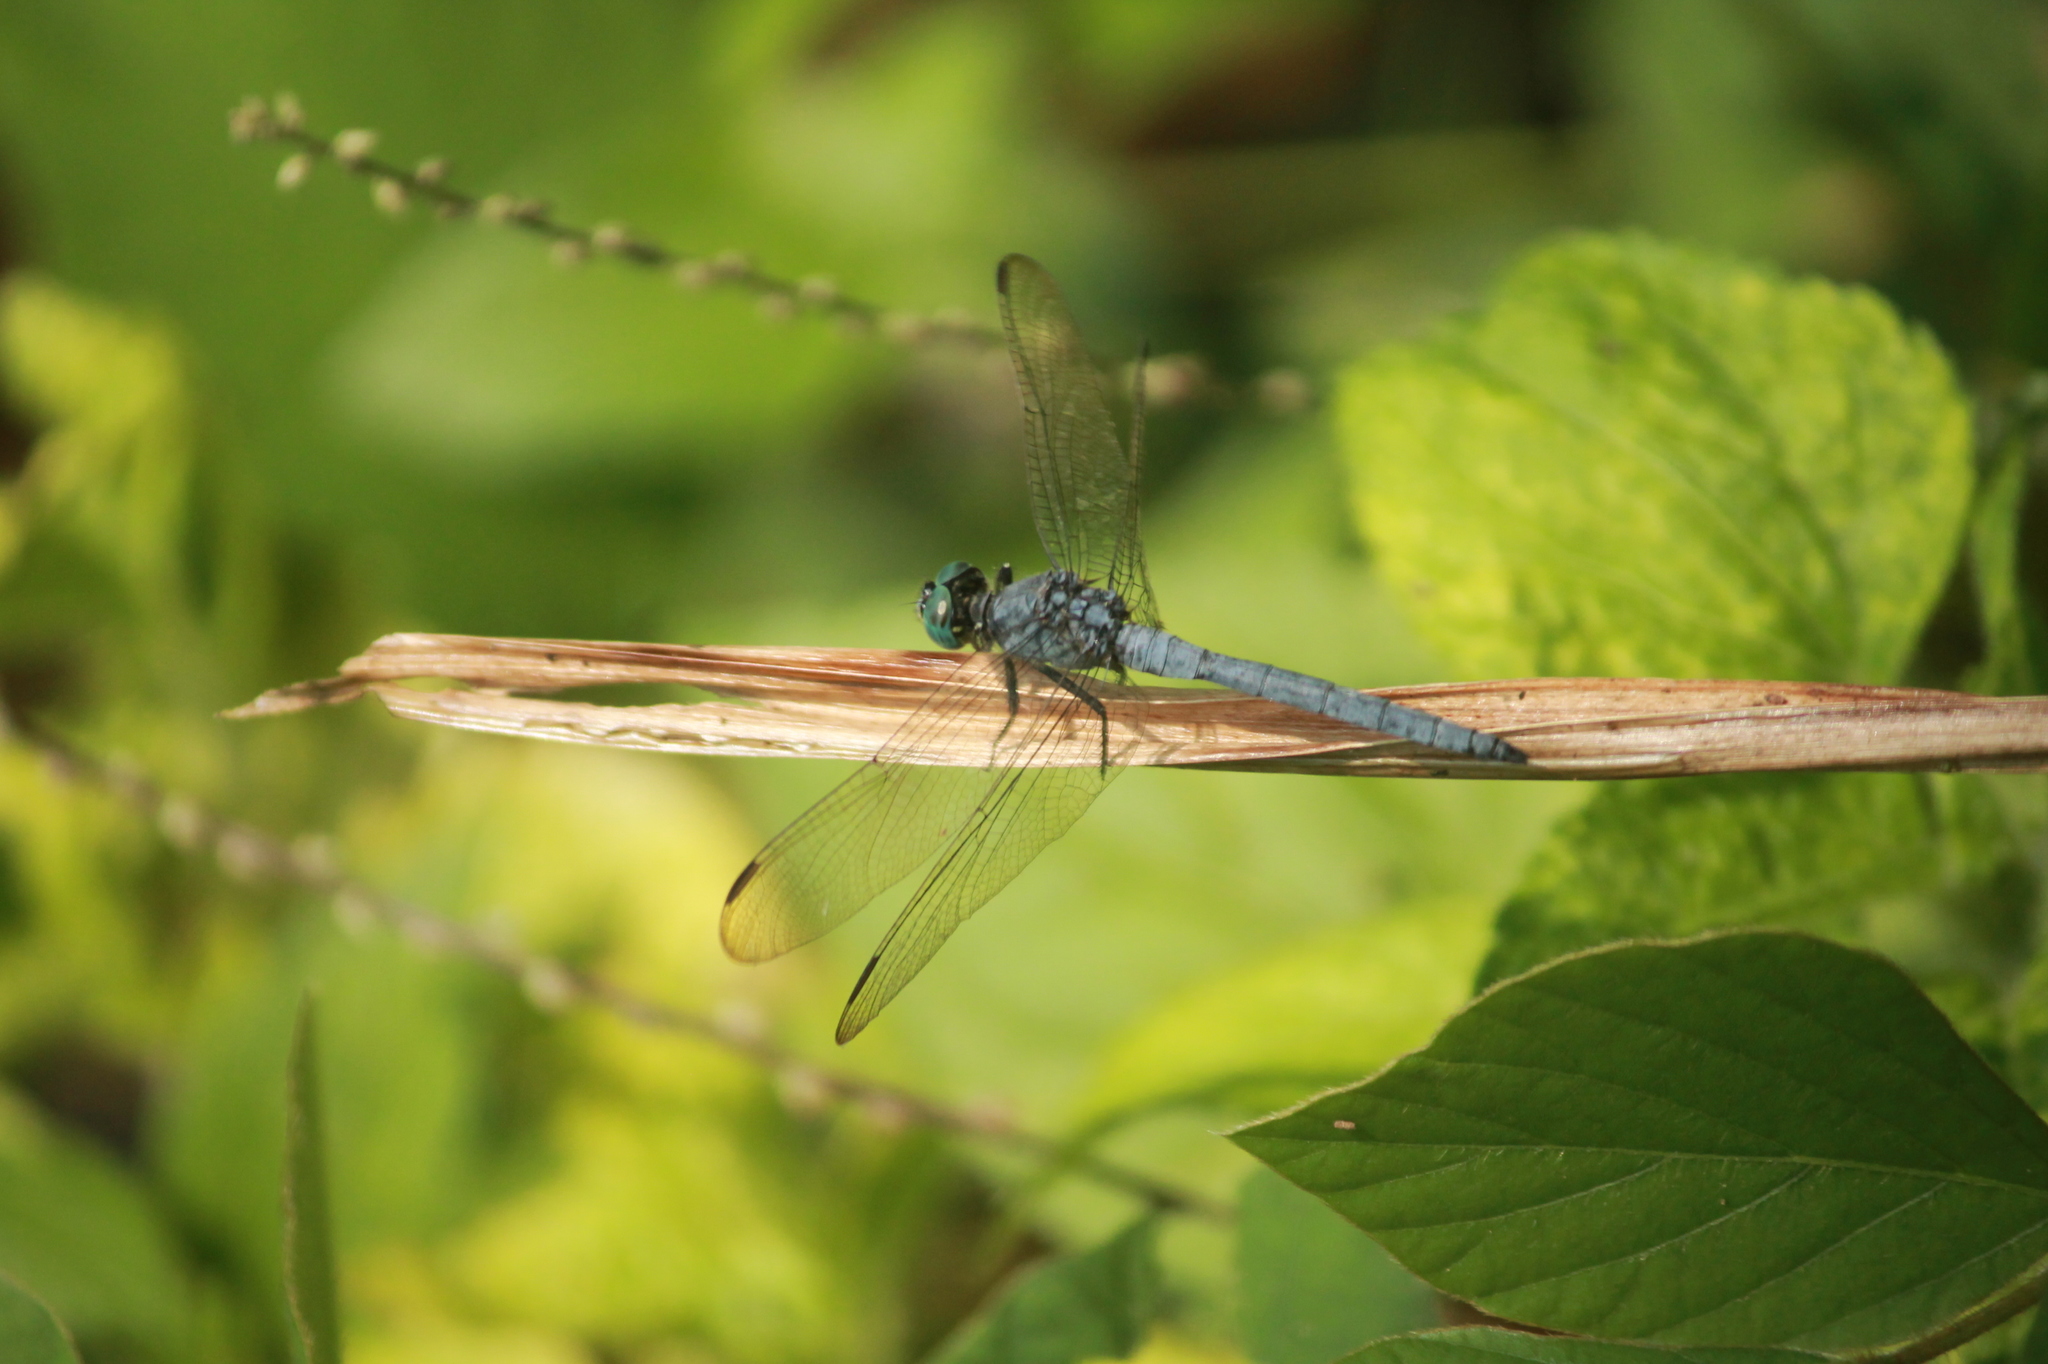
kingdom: Animalia
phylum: Arthropoda
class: Insecta
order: Odonata
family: Libellulidae
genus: Orthetrum
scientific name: Orthetrum luzonicum
